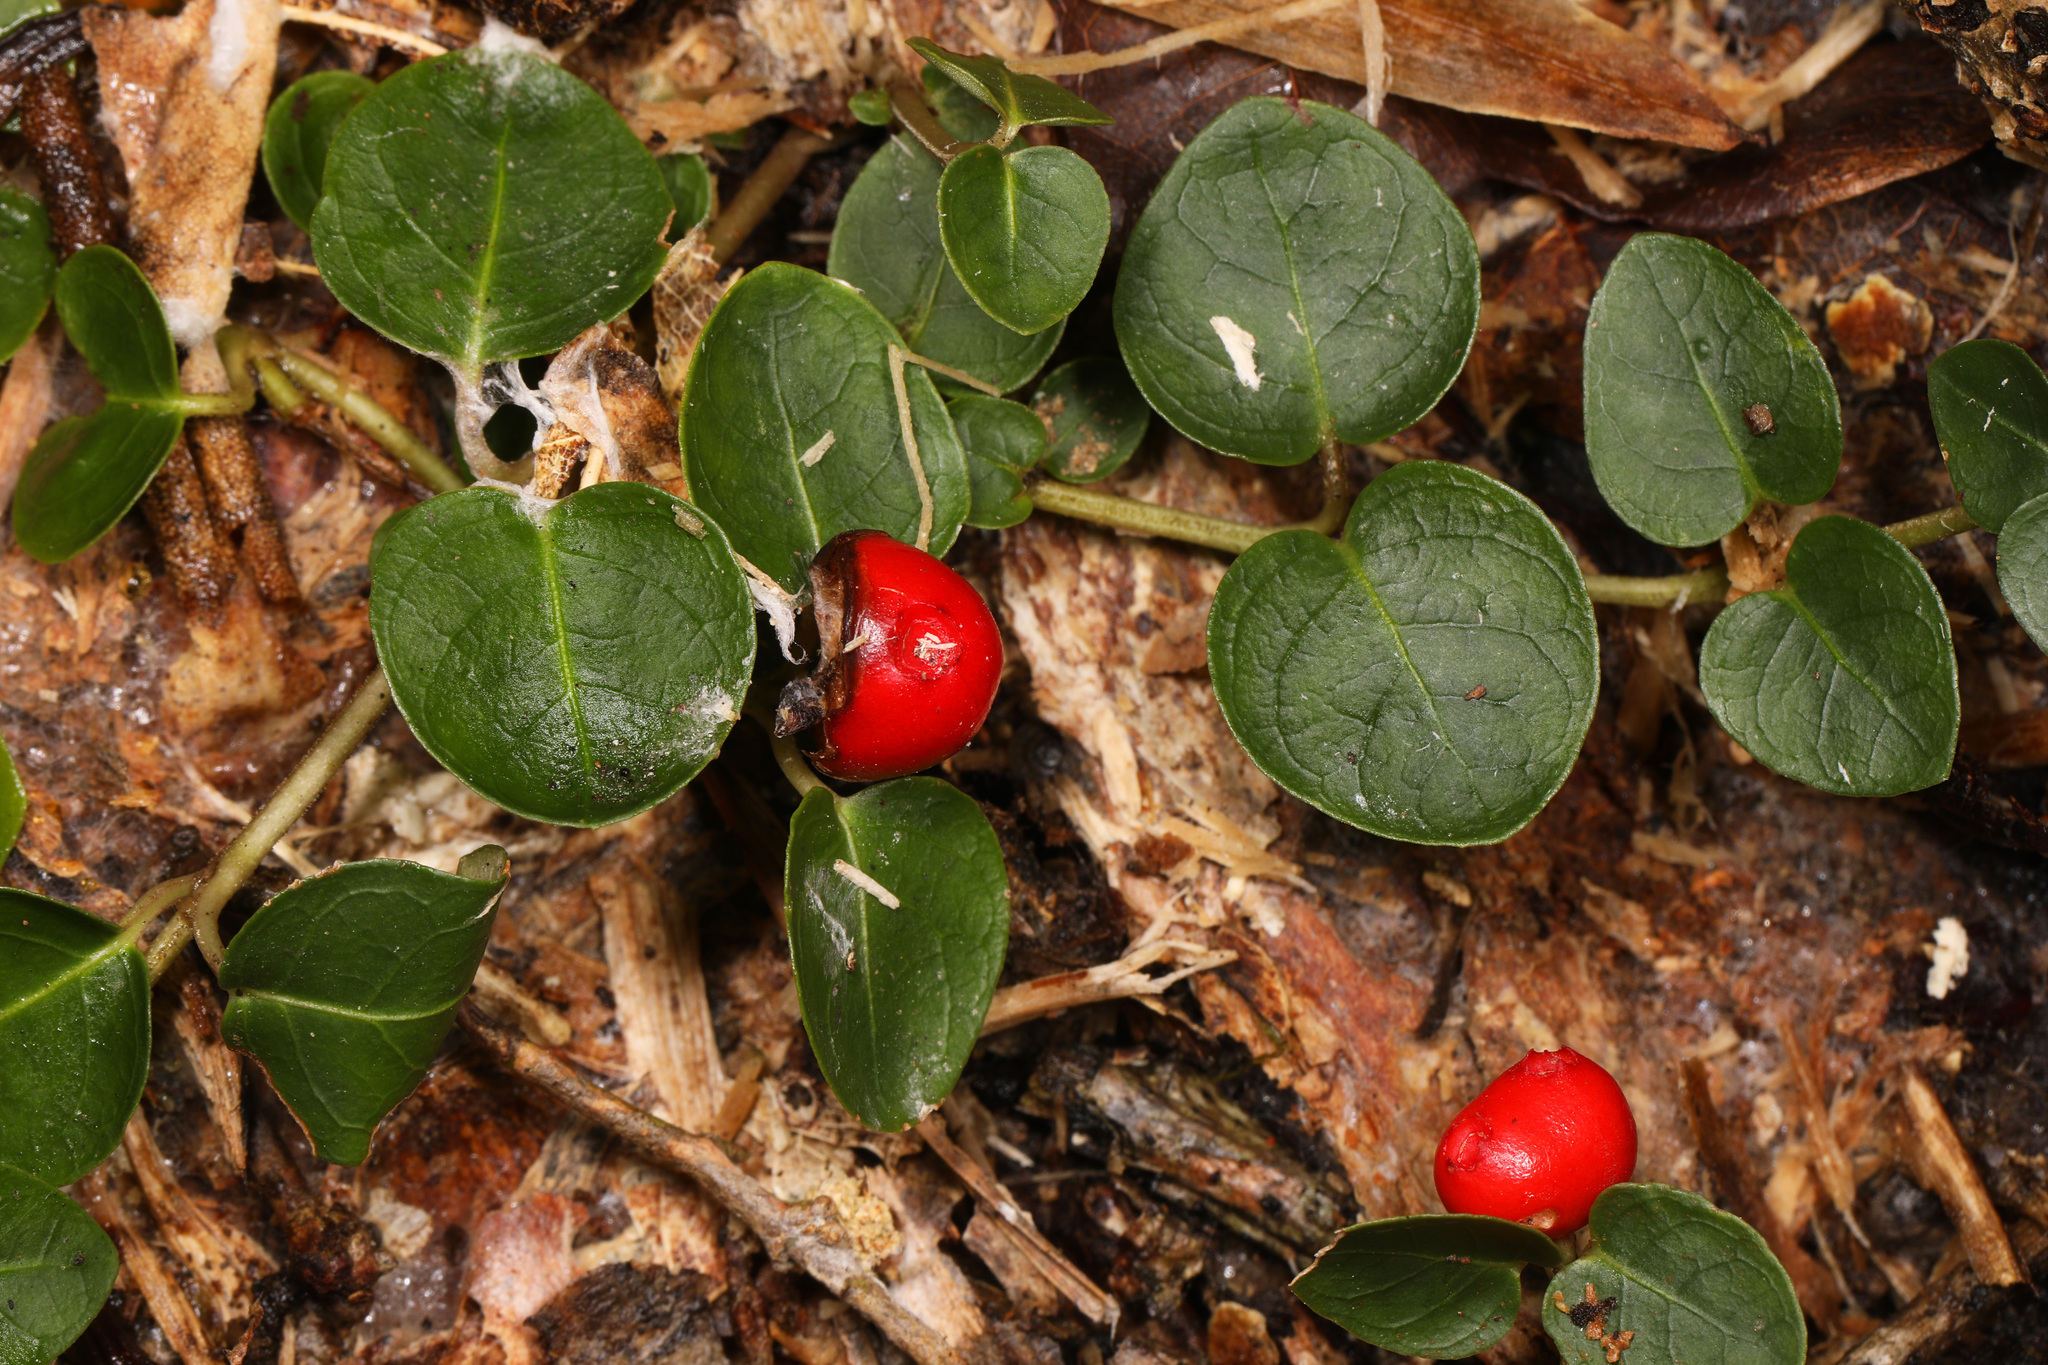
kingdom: Plantae
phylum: Tracheophyta
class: Magnoliopsida
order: Gentianales
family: Rubiaceae
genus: Mitchella
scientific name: Mitchella repens
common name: Partridge-berry
